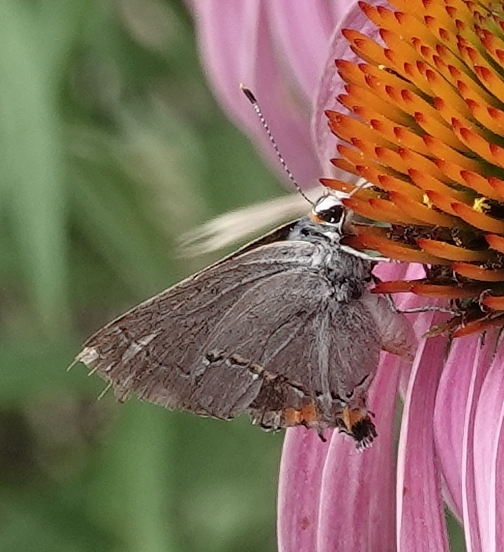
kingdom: Animalia
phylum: Arthropoda
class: Insecta
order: Lepidoptera
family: Lycaenidae
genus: Strymon
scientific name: Strymon melinus
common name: Gray hairstreak
